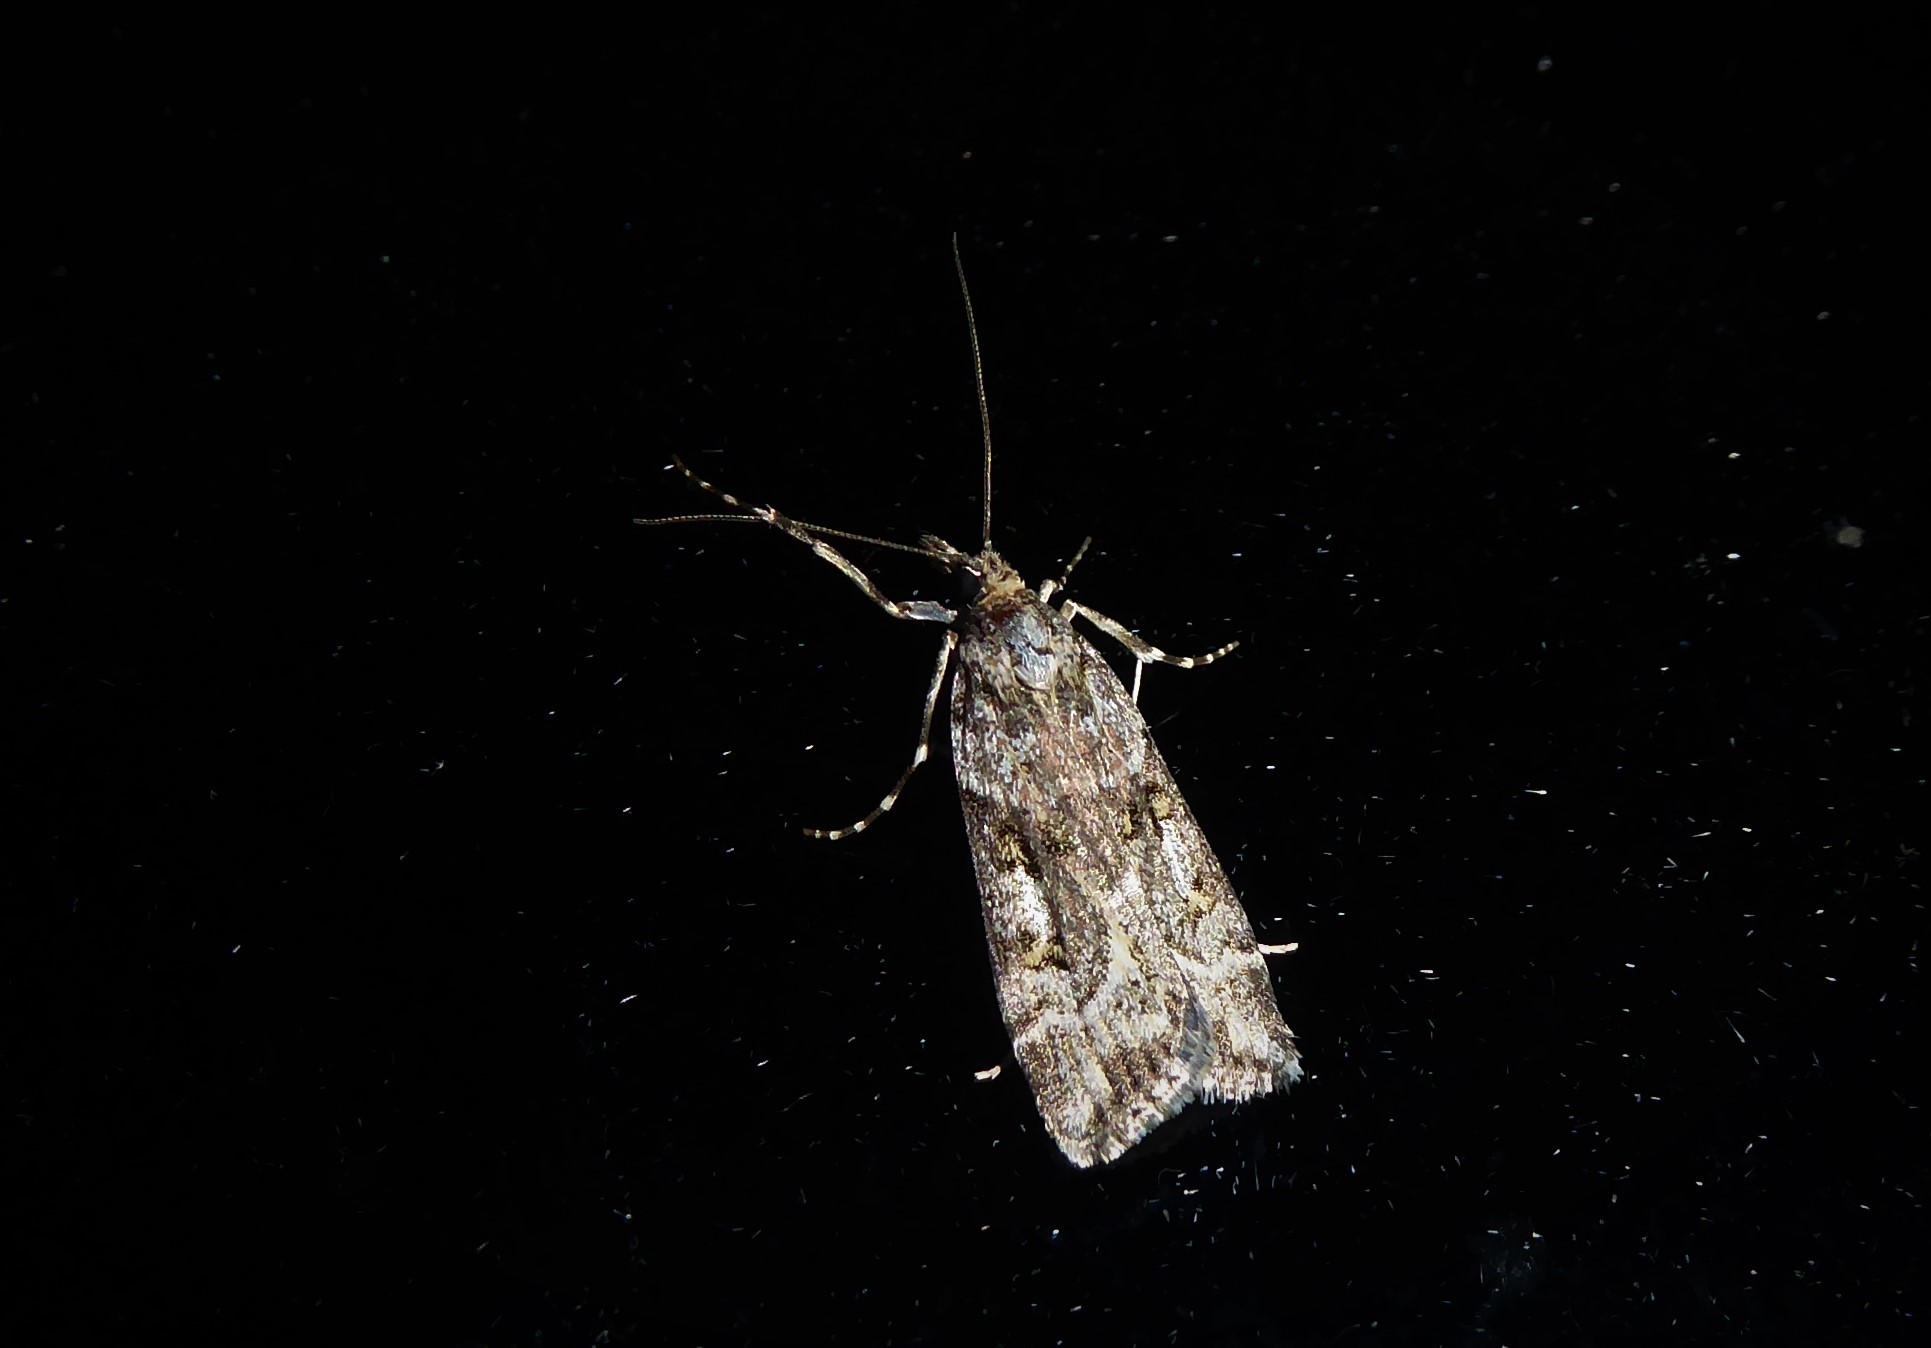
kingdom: Animalia
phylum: Arthropoda
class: Insecta
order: Lepidoptera
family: Crambidae
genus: Eudonia
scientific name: Eudonia diphtheralis
